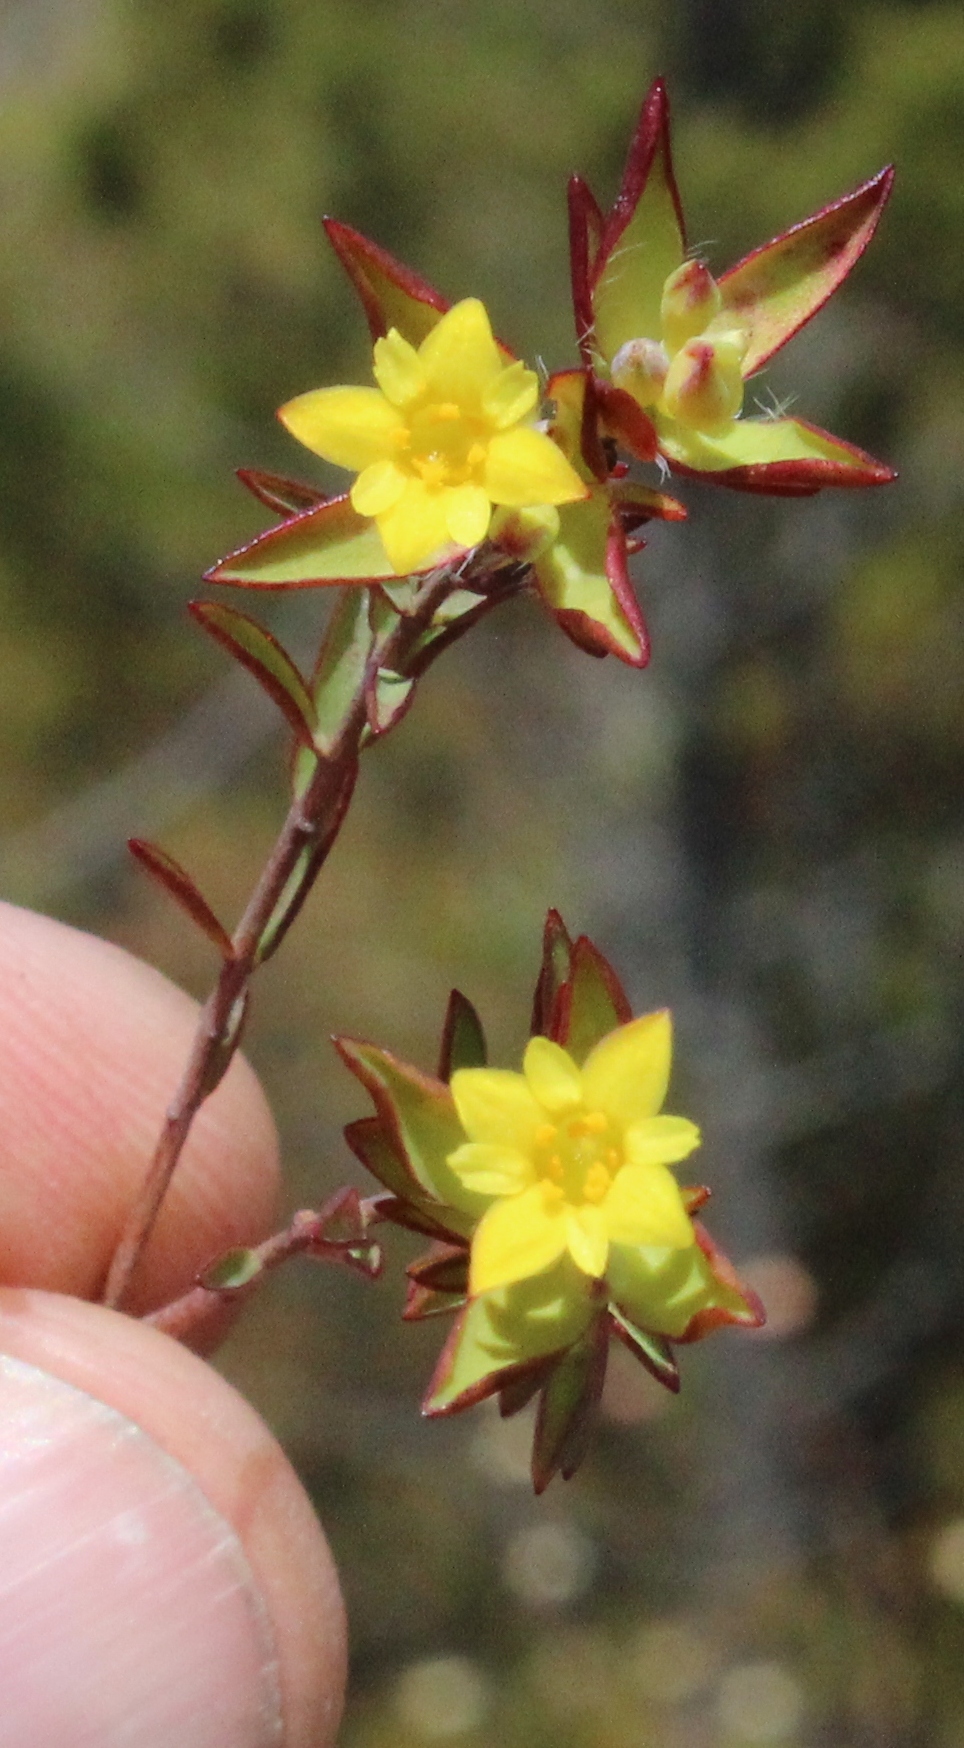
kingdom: Plantae
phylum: Tracheophyta
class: Magnoliopsida
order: Malvales
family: Thymelaeaceae
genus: Gnidia
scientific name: Gnidia juniperifolia
